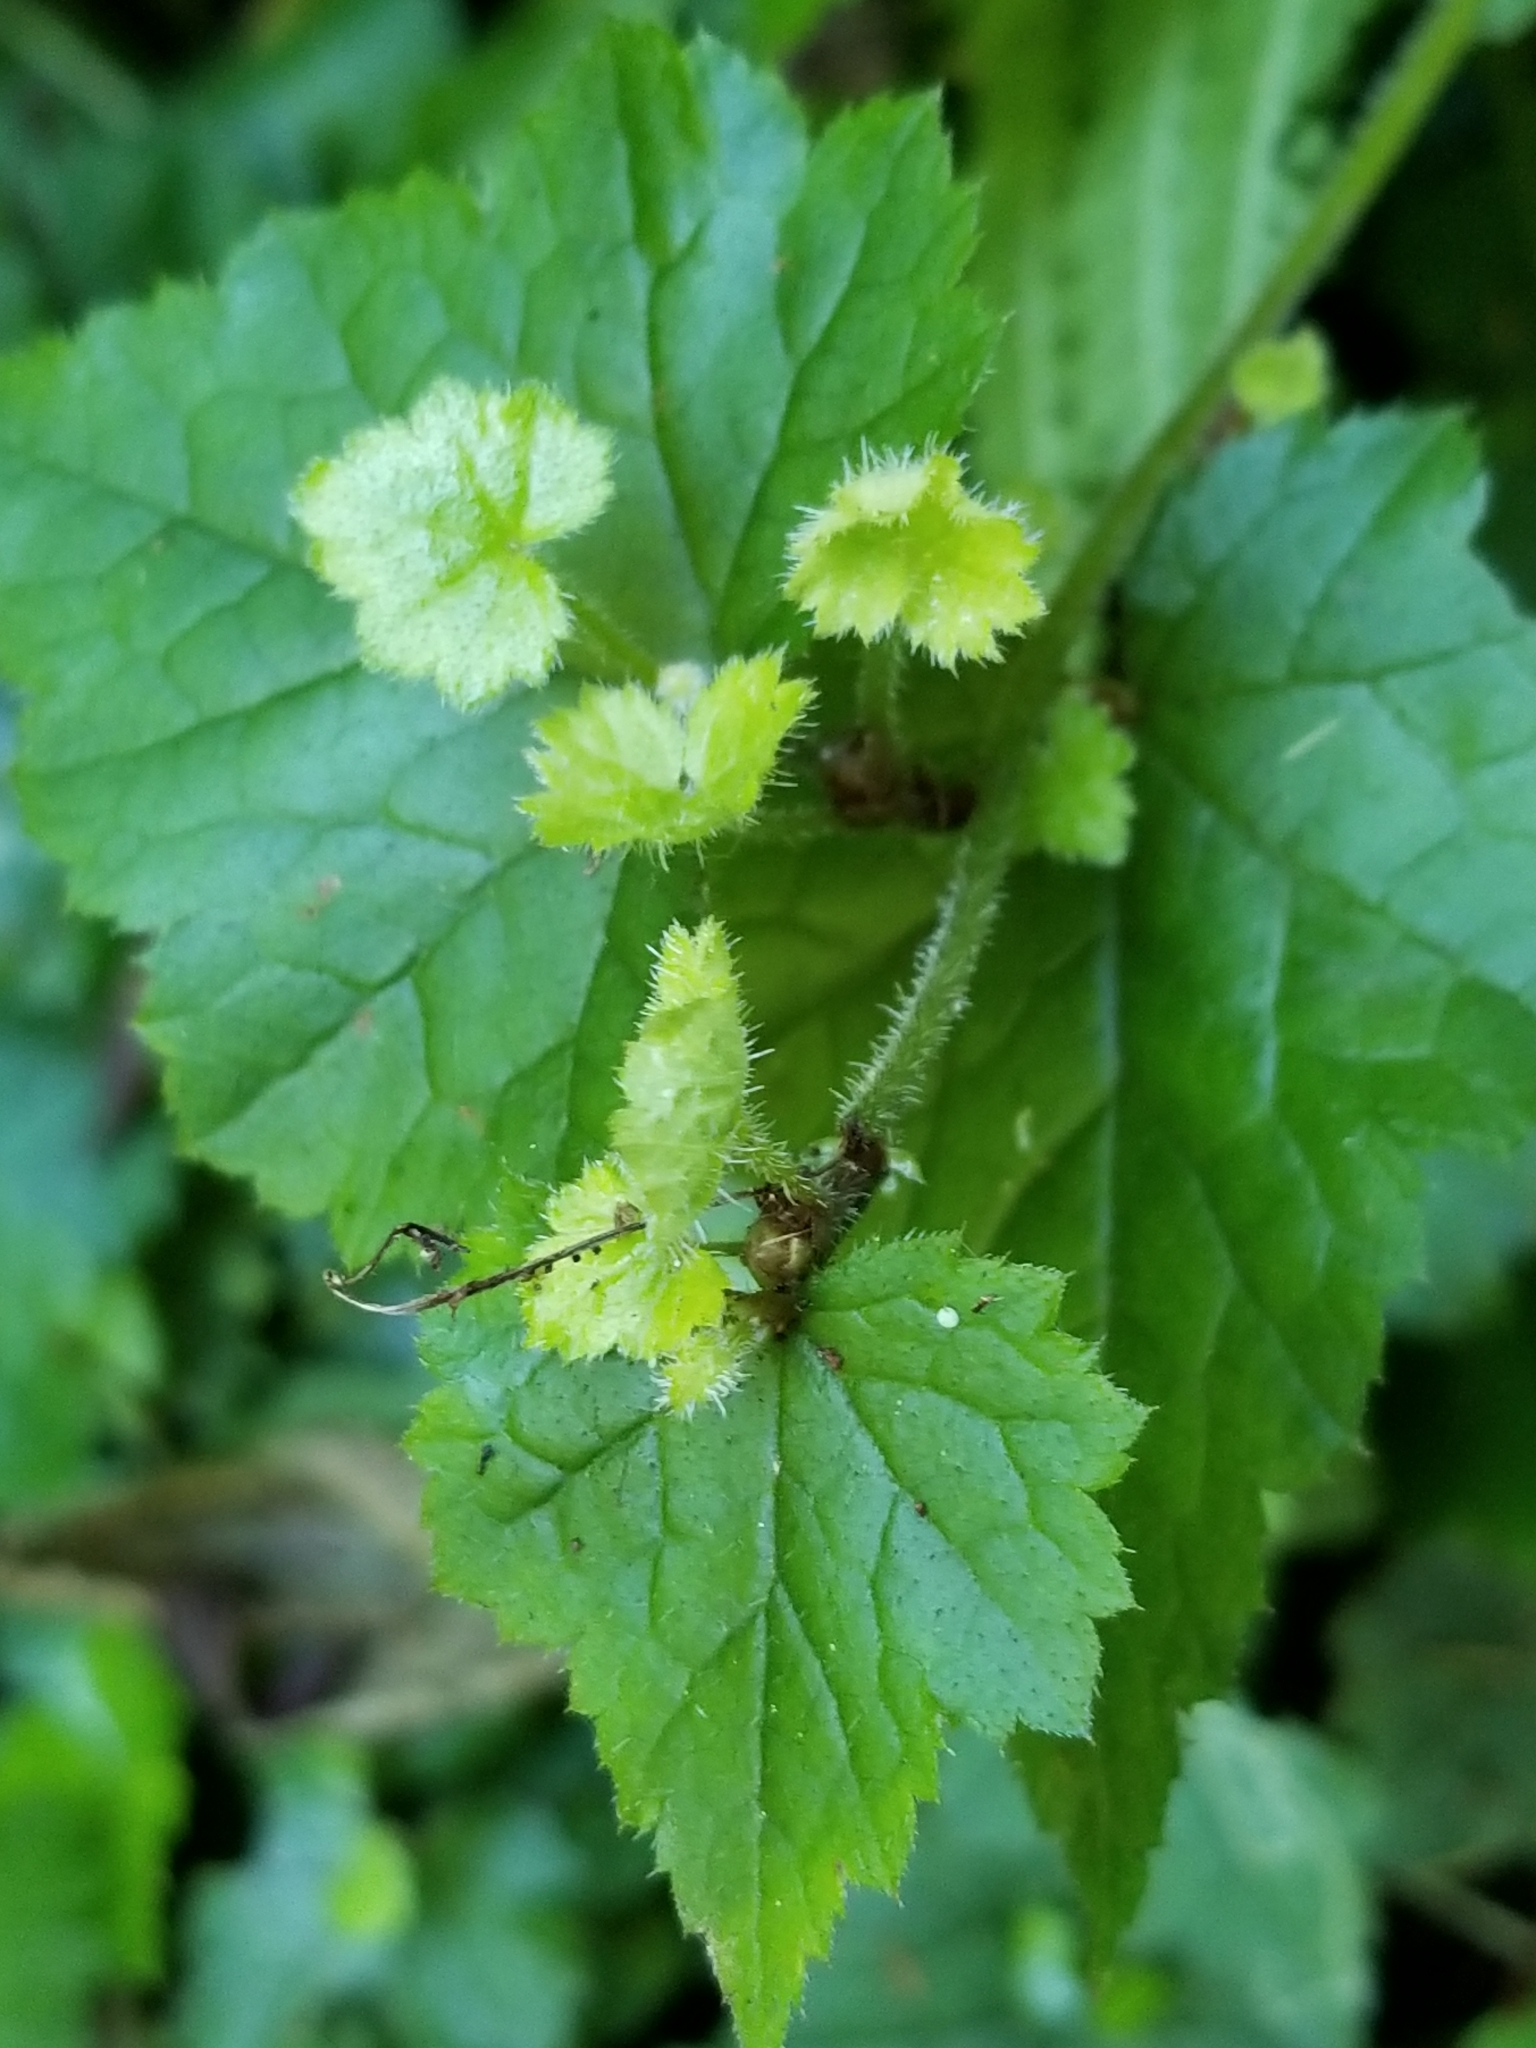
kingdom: Plantae
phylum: Tracheophyta
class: Magnoliopsida
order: Saxifragales
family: Saxifragaceae
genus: Tolmiea
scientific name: Tolmiea menziesii
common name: Pick-a-back-plant
